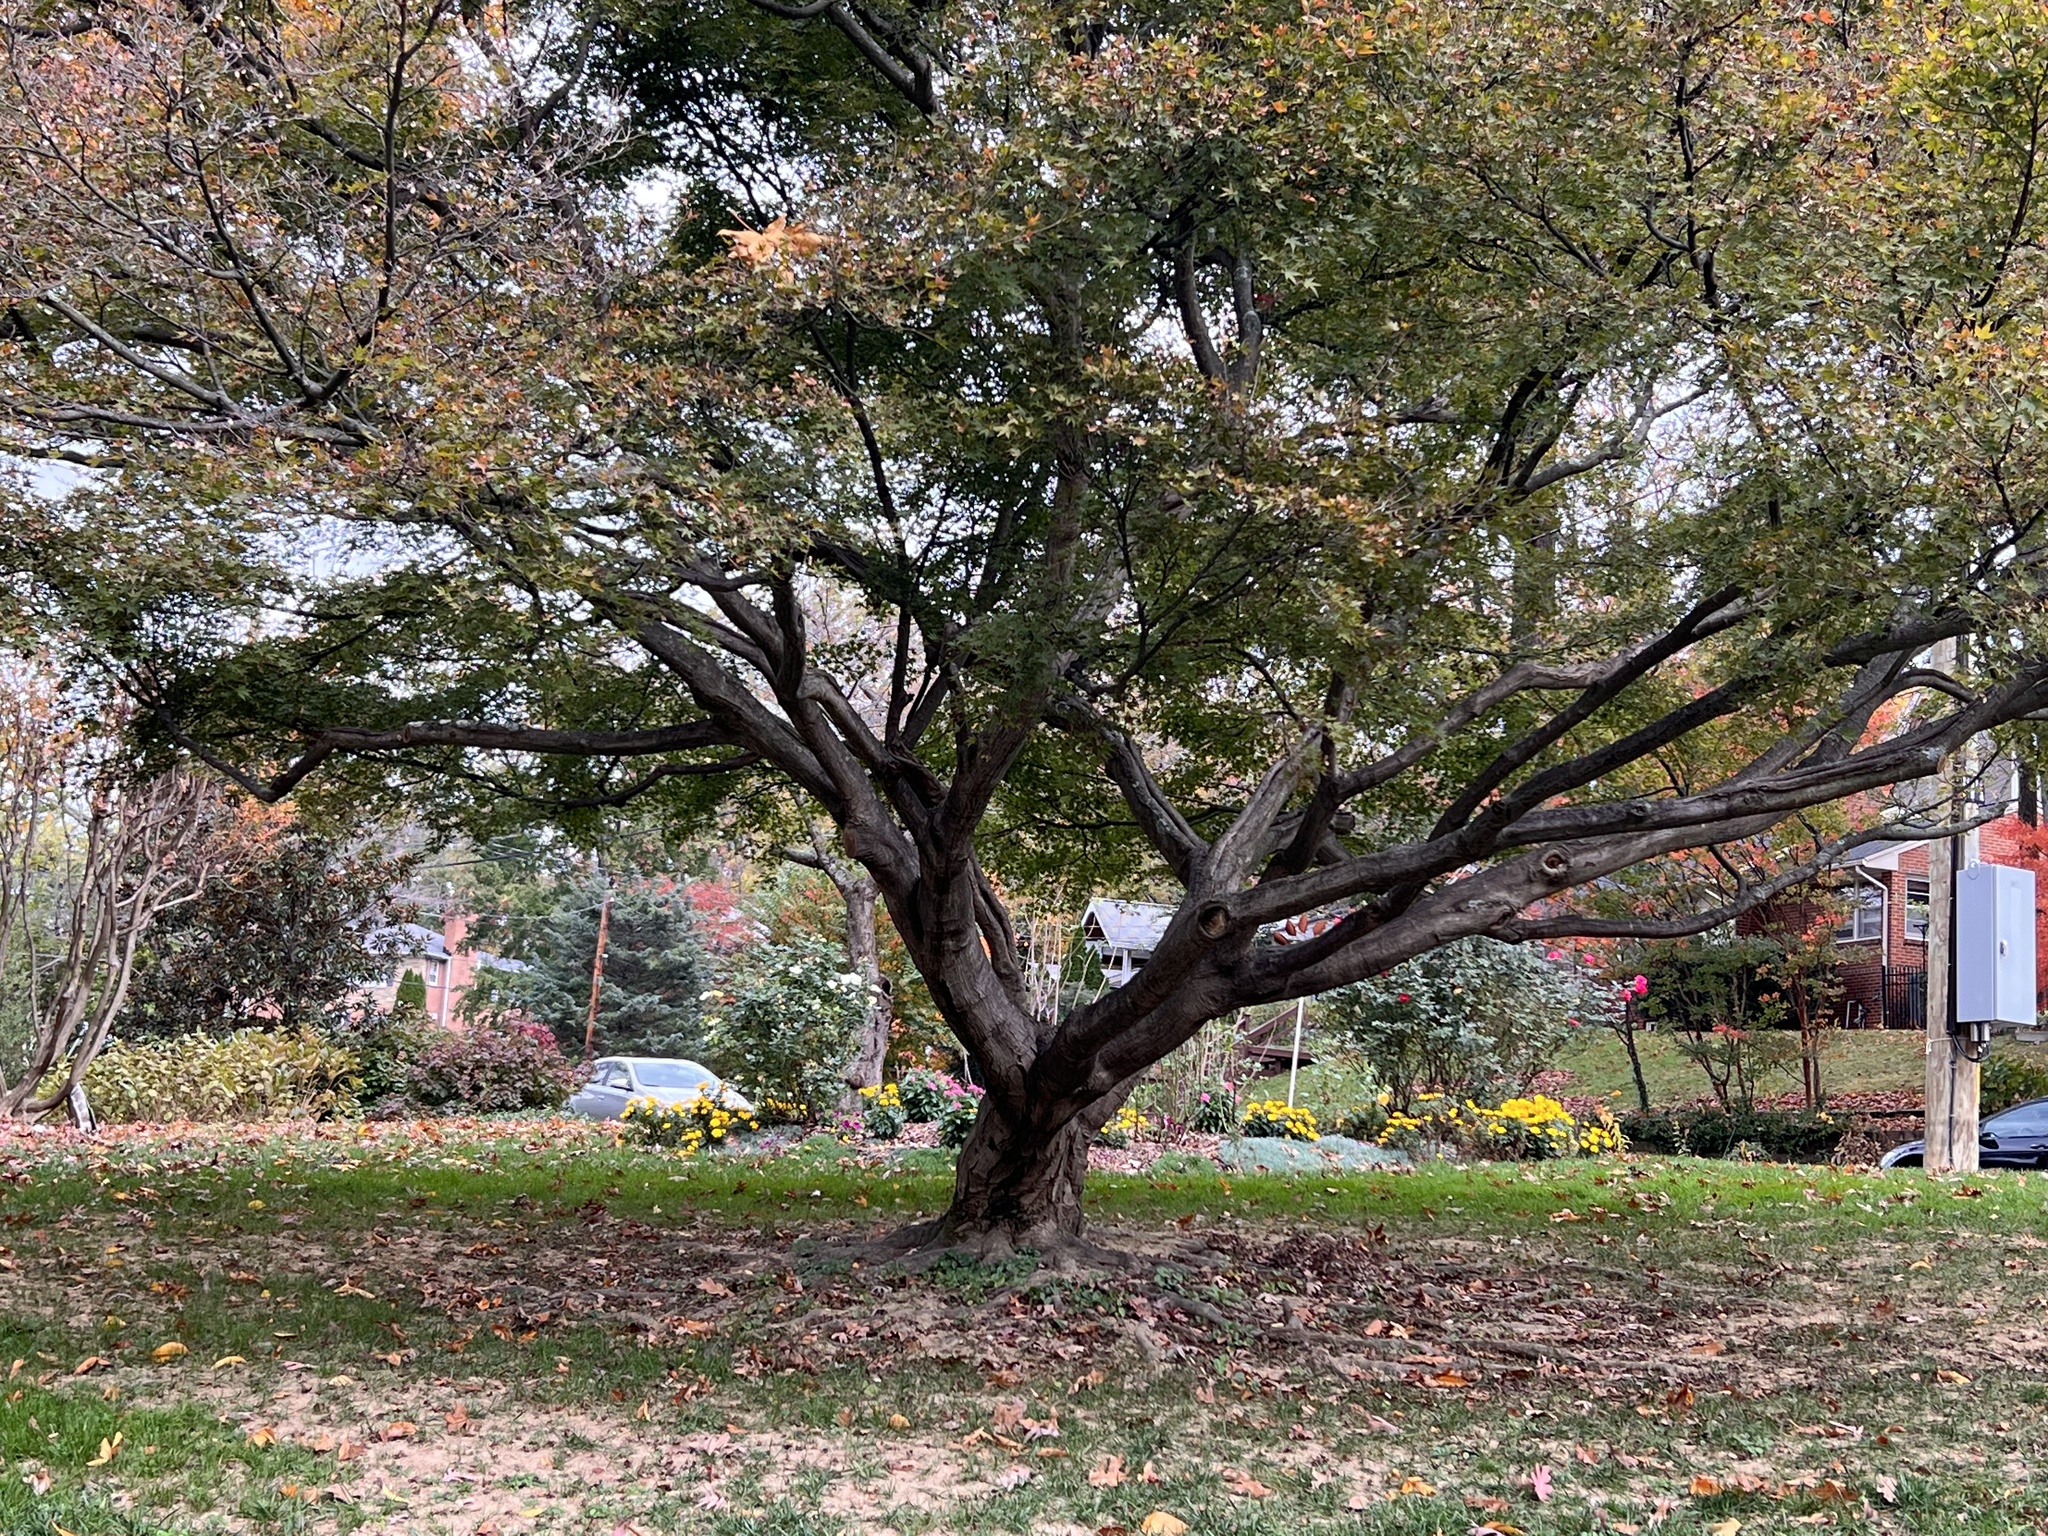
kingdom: Fungi
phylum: Basidiomycota
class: Agaricomycetes
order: Polyporales
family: Grifolaceae
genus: Grifola
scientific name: Grifola frondosa
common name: Hen of the woods
